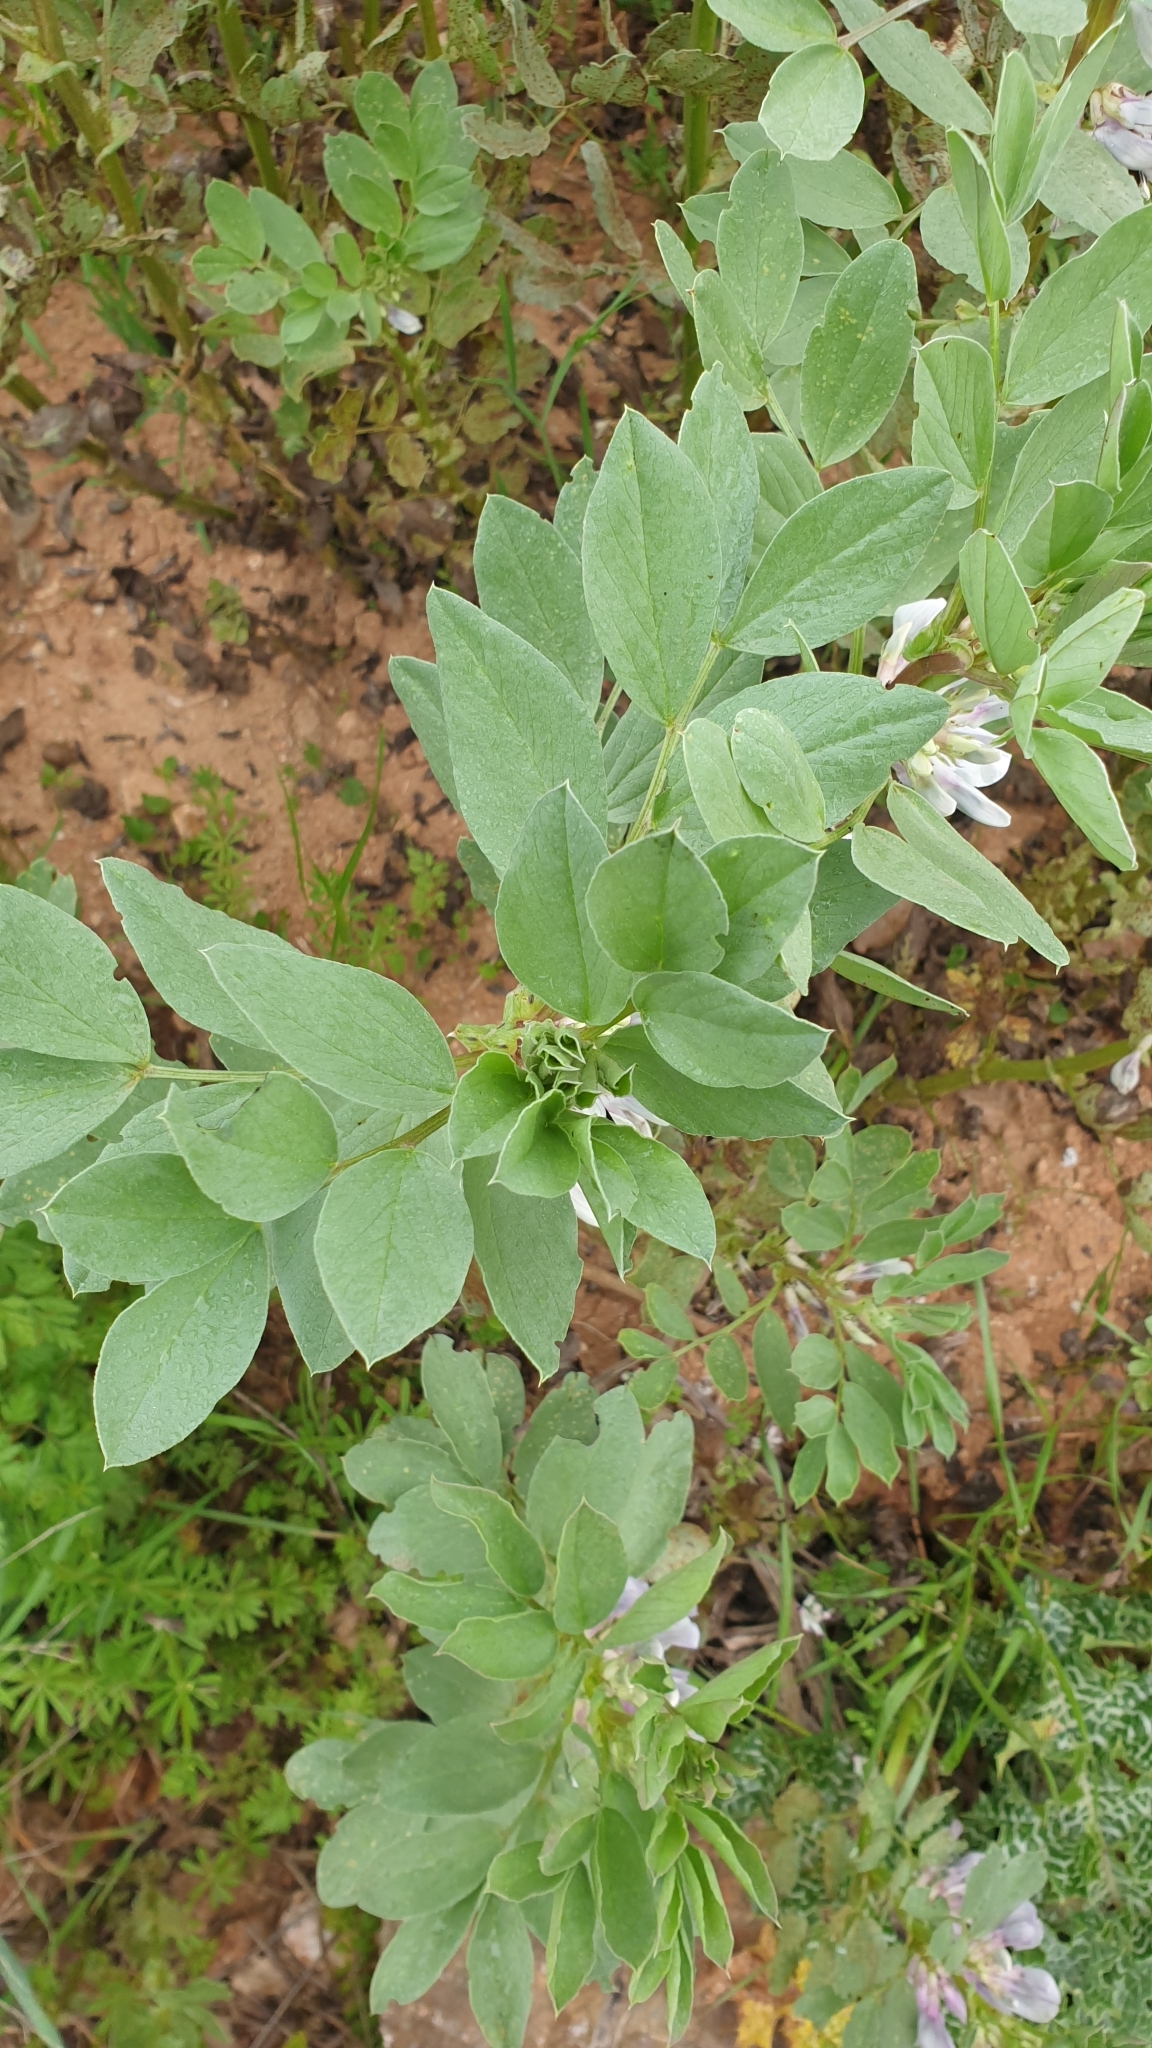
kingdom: Plantae
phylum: Tracheophyta
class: Magnoliopsida
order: Fabales
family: Fabaceae
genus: Vicia
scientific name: Vicia faba
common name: Broad bean
